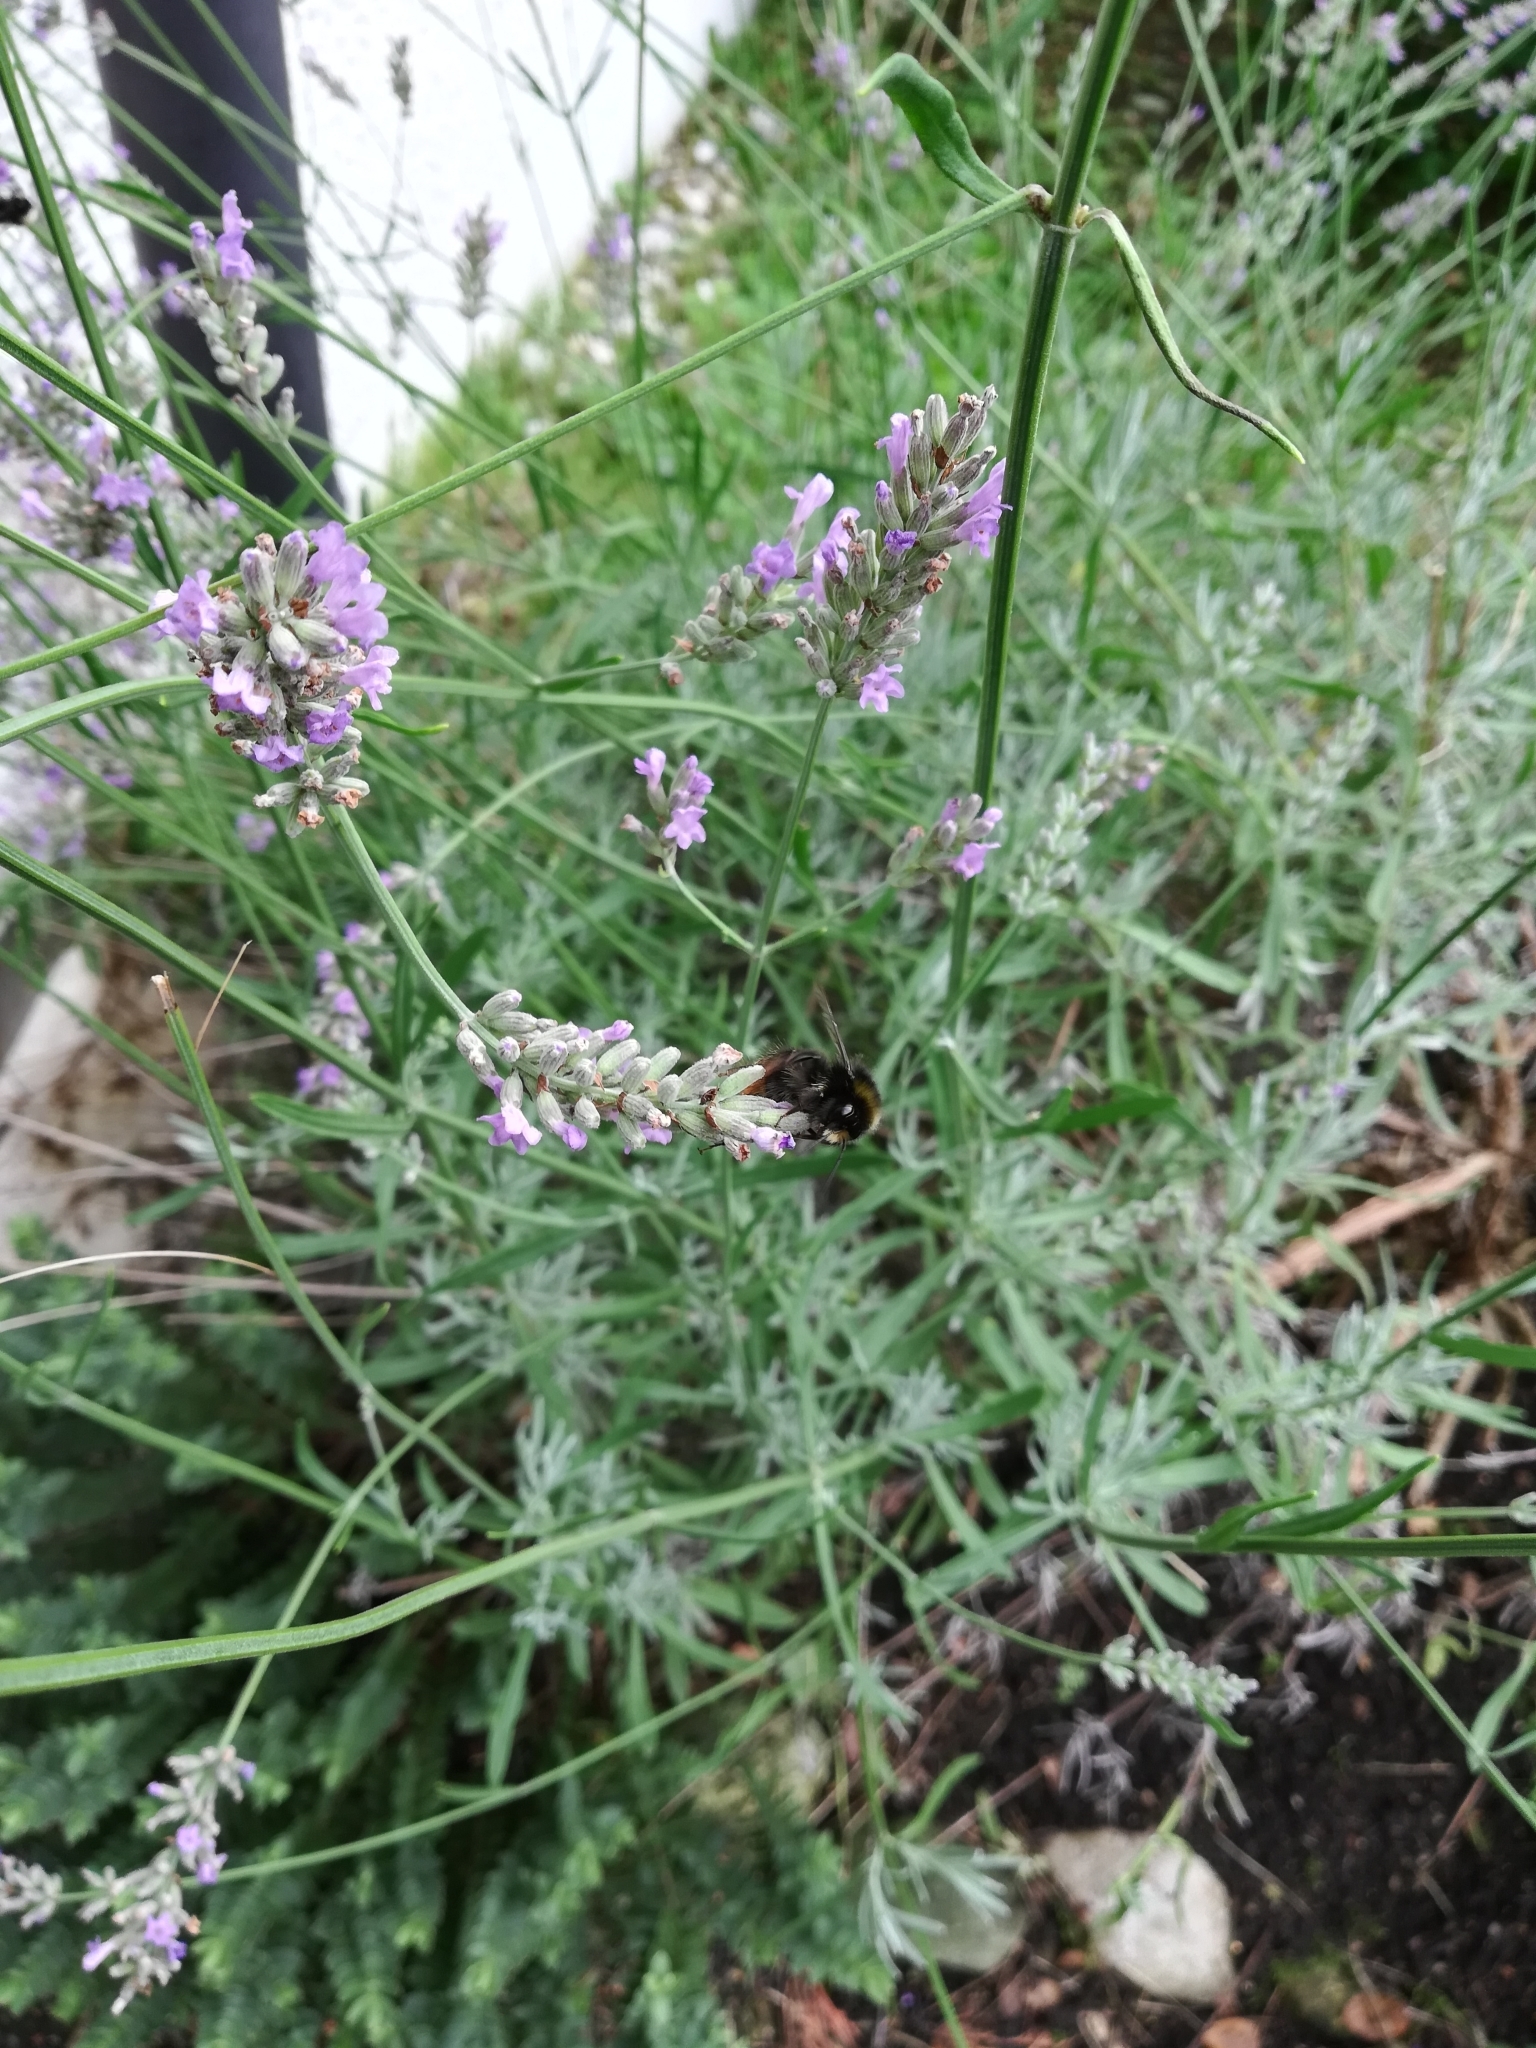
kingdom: Animalia
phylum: Arthropoda
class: Insecta
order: Hymenoptera
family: Apidae
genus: Bombus
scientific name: Bombus lapidarius
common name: Large red-tailed humble-bee
